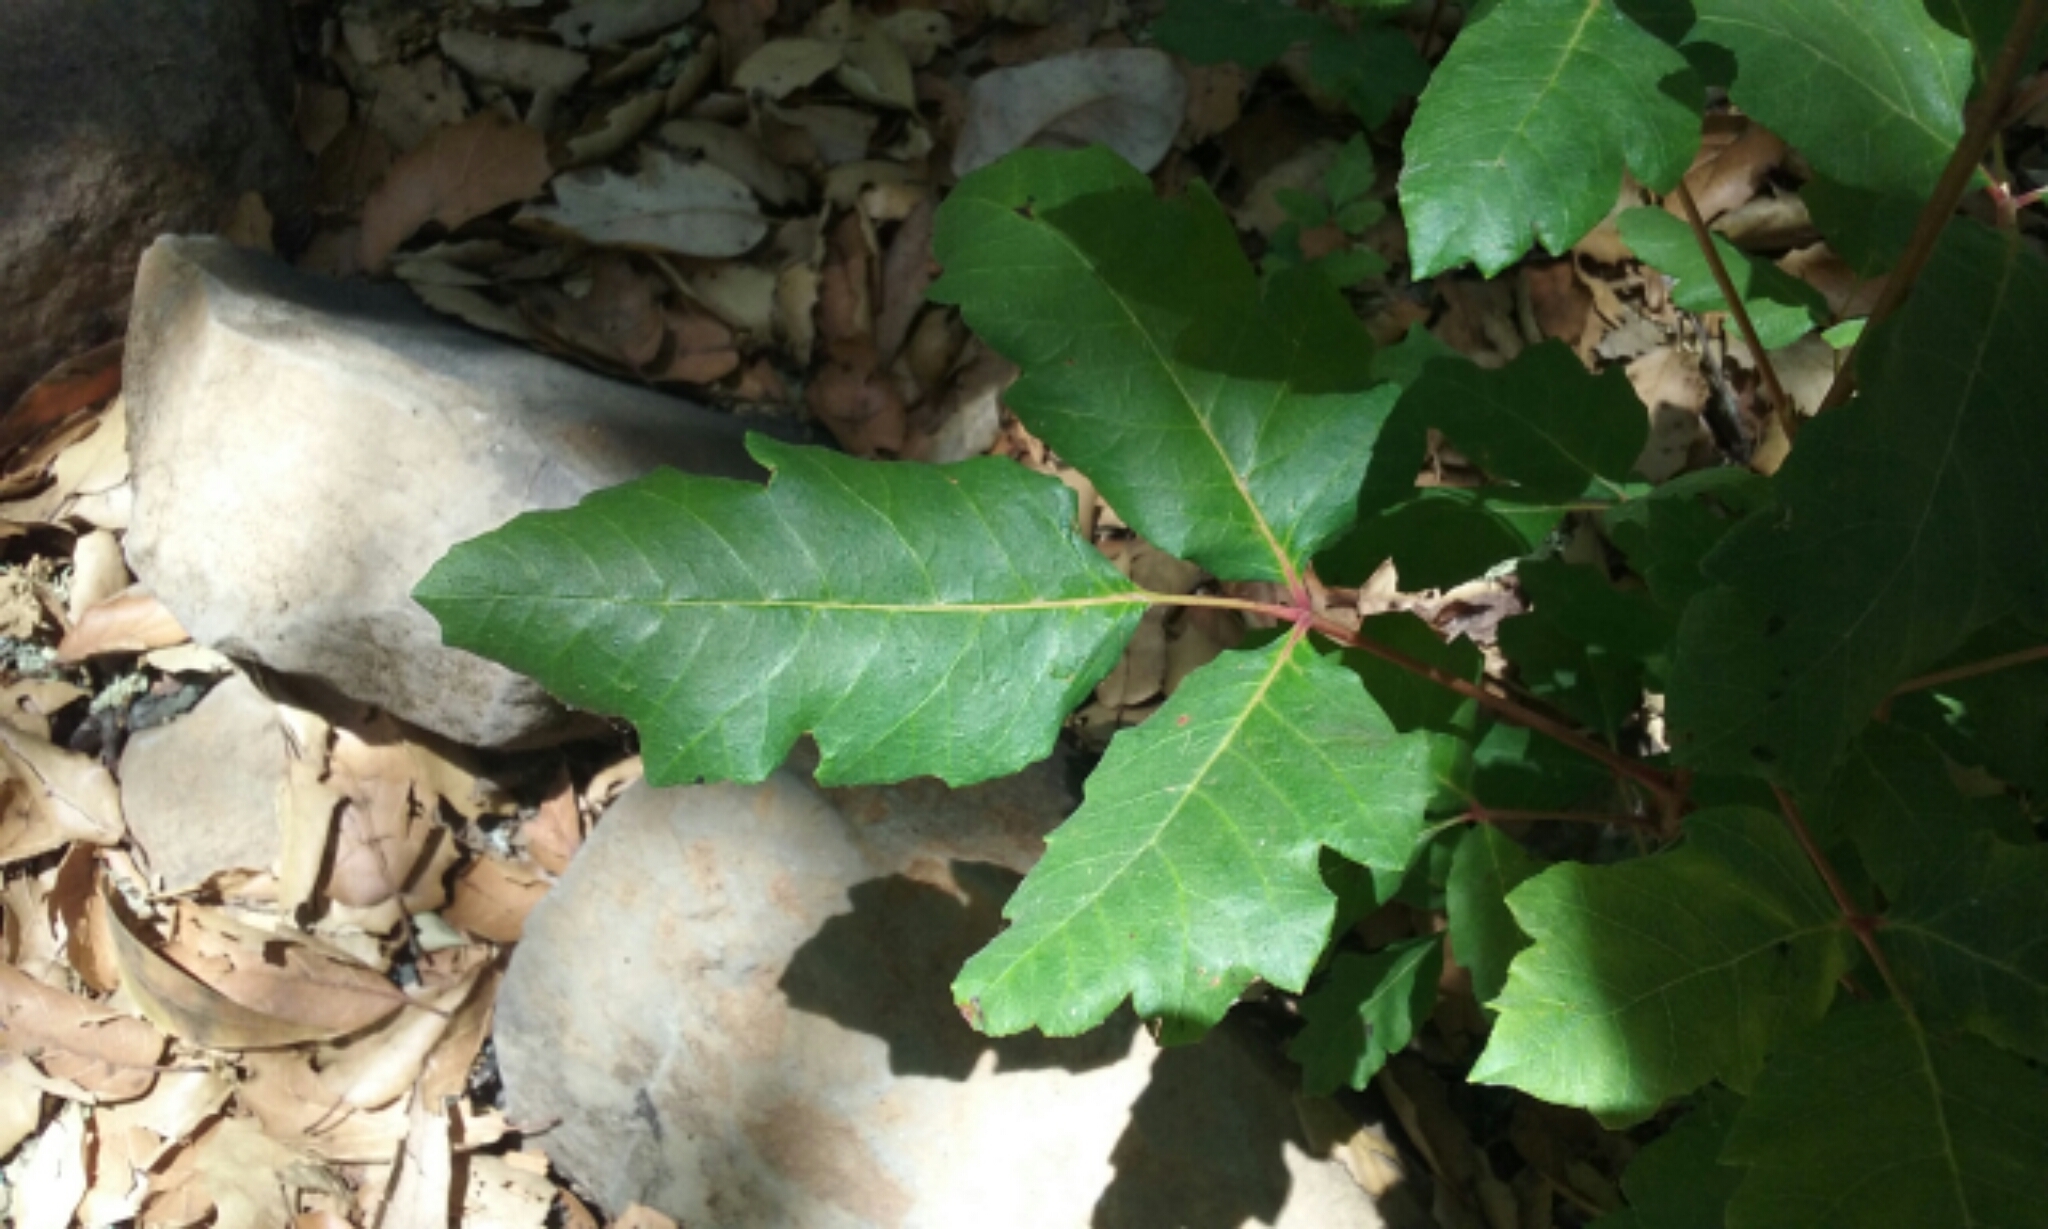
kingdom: Plantae
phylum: Tracheophyta
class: Magnoliopsida
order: Sapindales
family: Anacardiaceae
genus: Toxicodendron
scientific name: Toxicodendron diversilobum
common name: Pacific poison-oak
